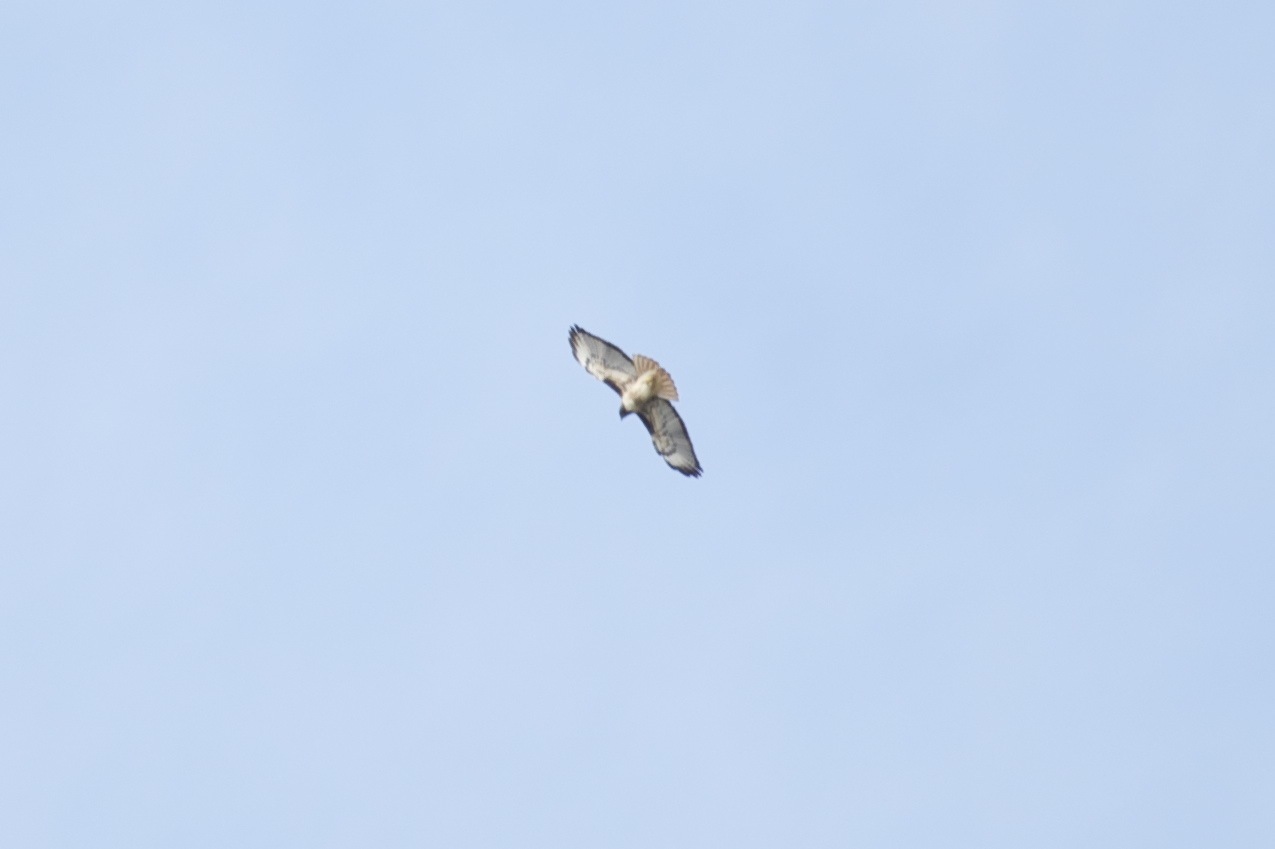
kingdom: Animalia
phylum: Chordata
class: Aves
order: Accipitriformes
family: Accipitridae
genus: Buteo
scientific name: Buteo jamaicensis
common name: Red-tailed hawk
